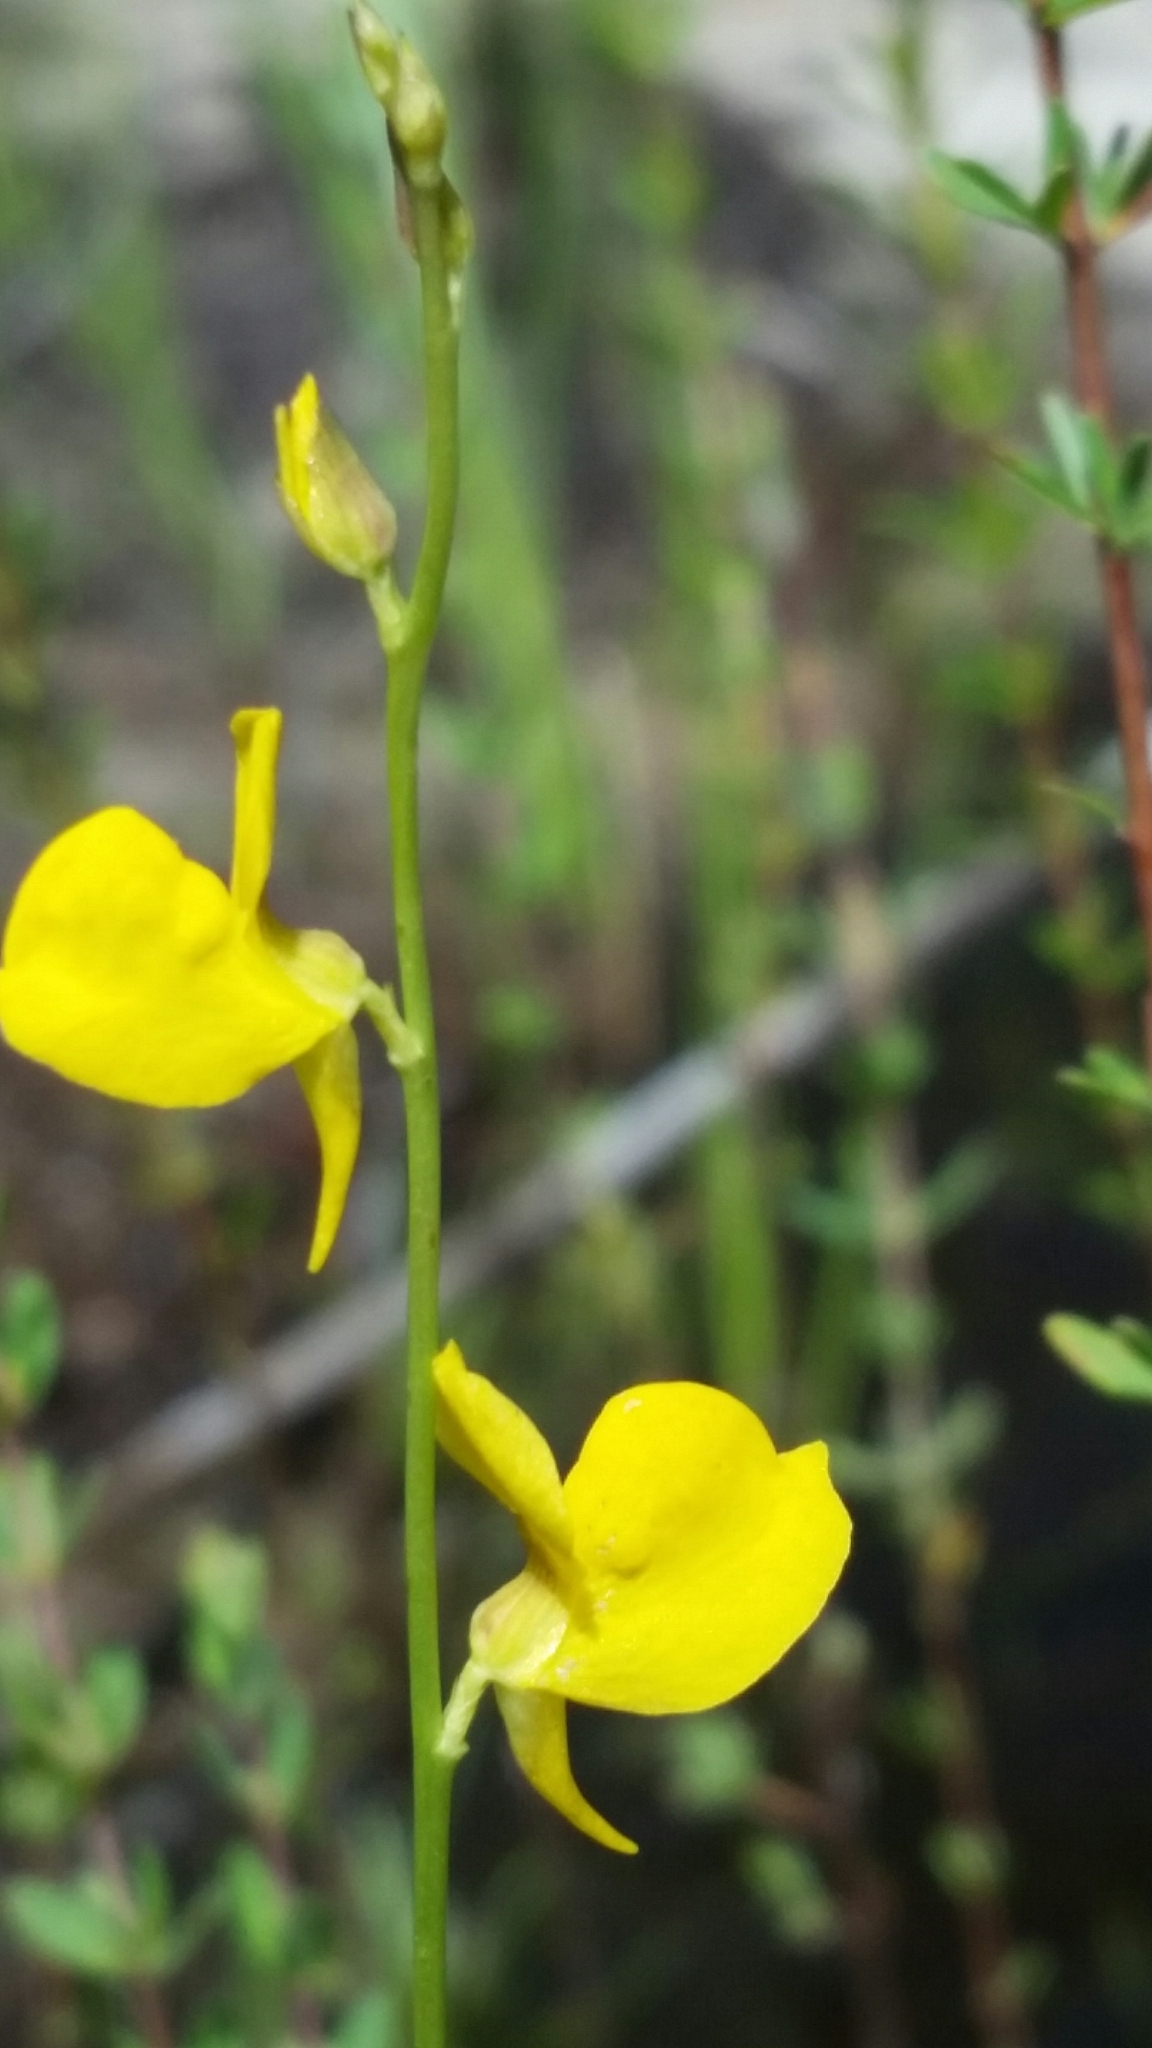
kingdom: Plantae
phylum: Tracheophyta
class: Magnoliopsida
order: Lamiales
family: Lentibulariaceae
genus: Utricularia
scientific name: Utricularia juncea
